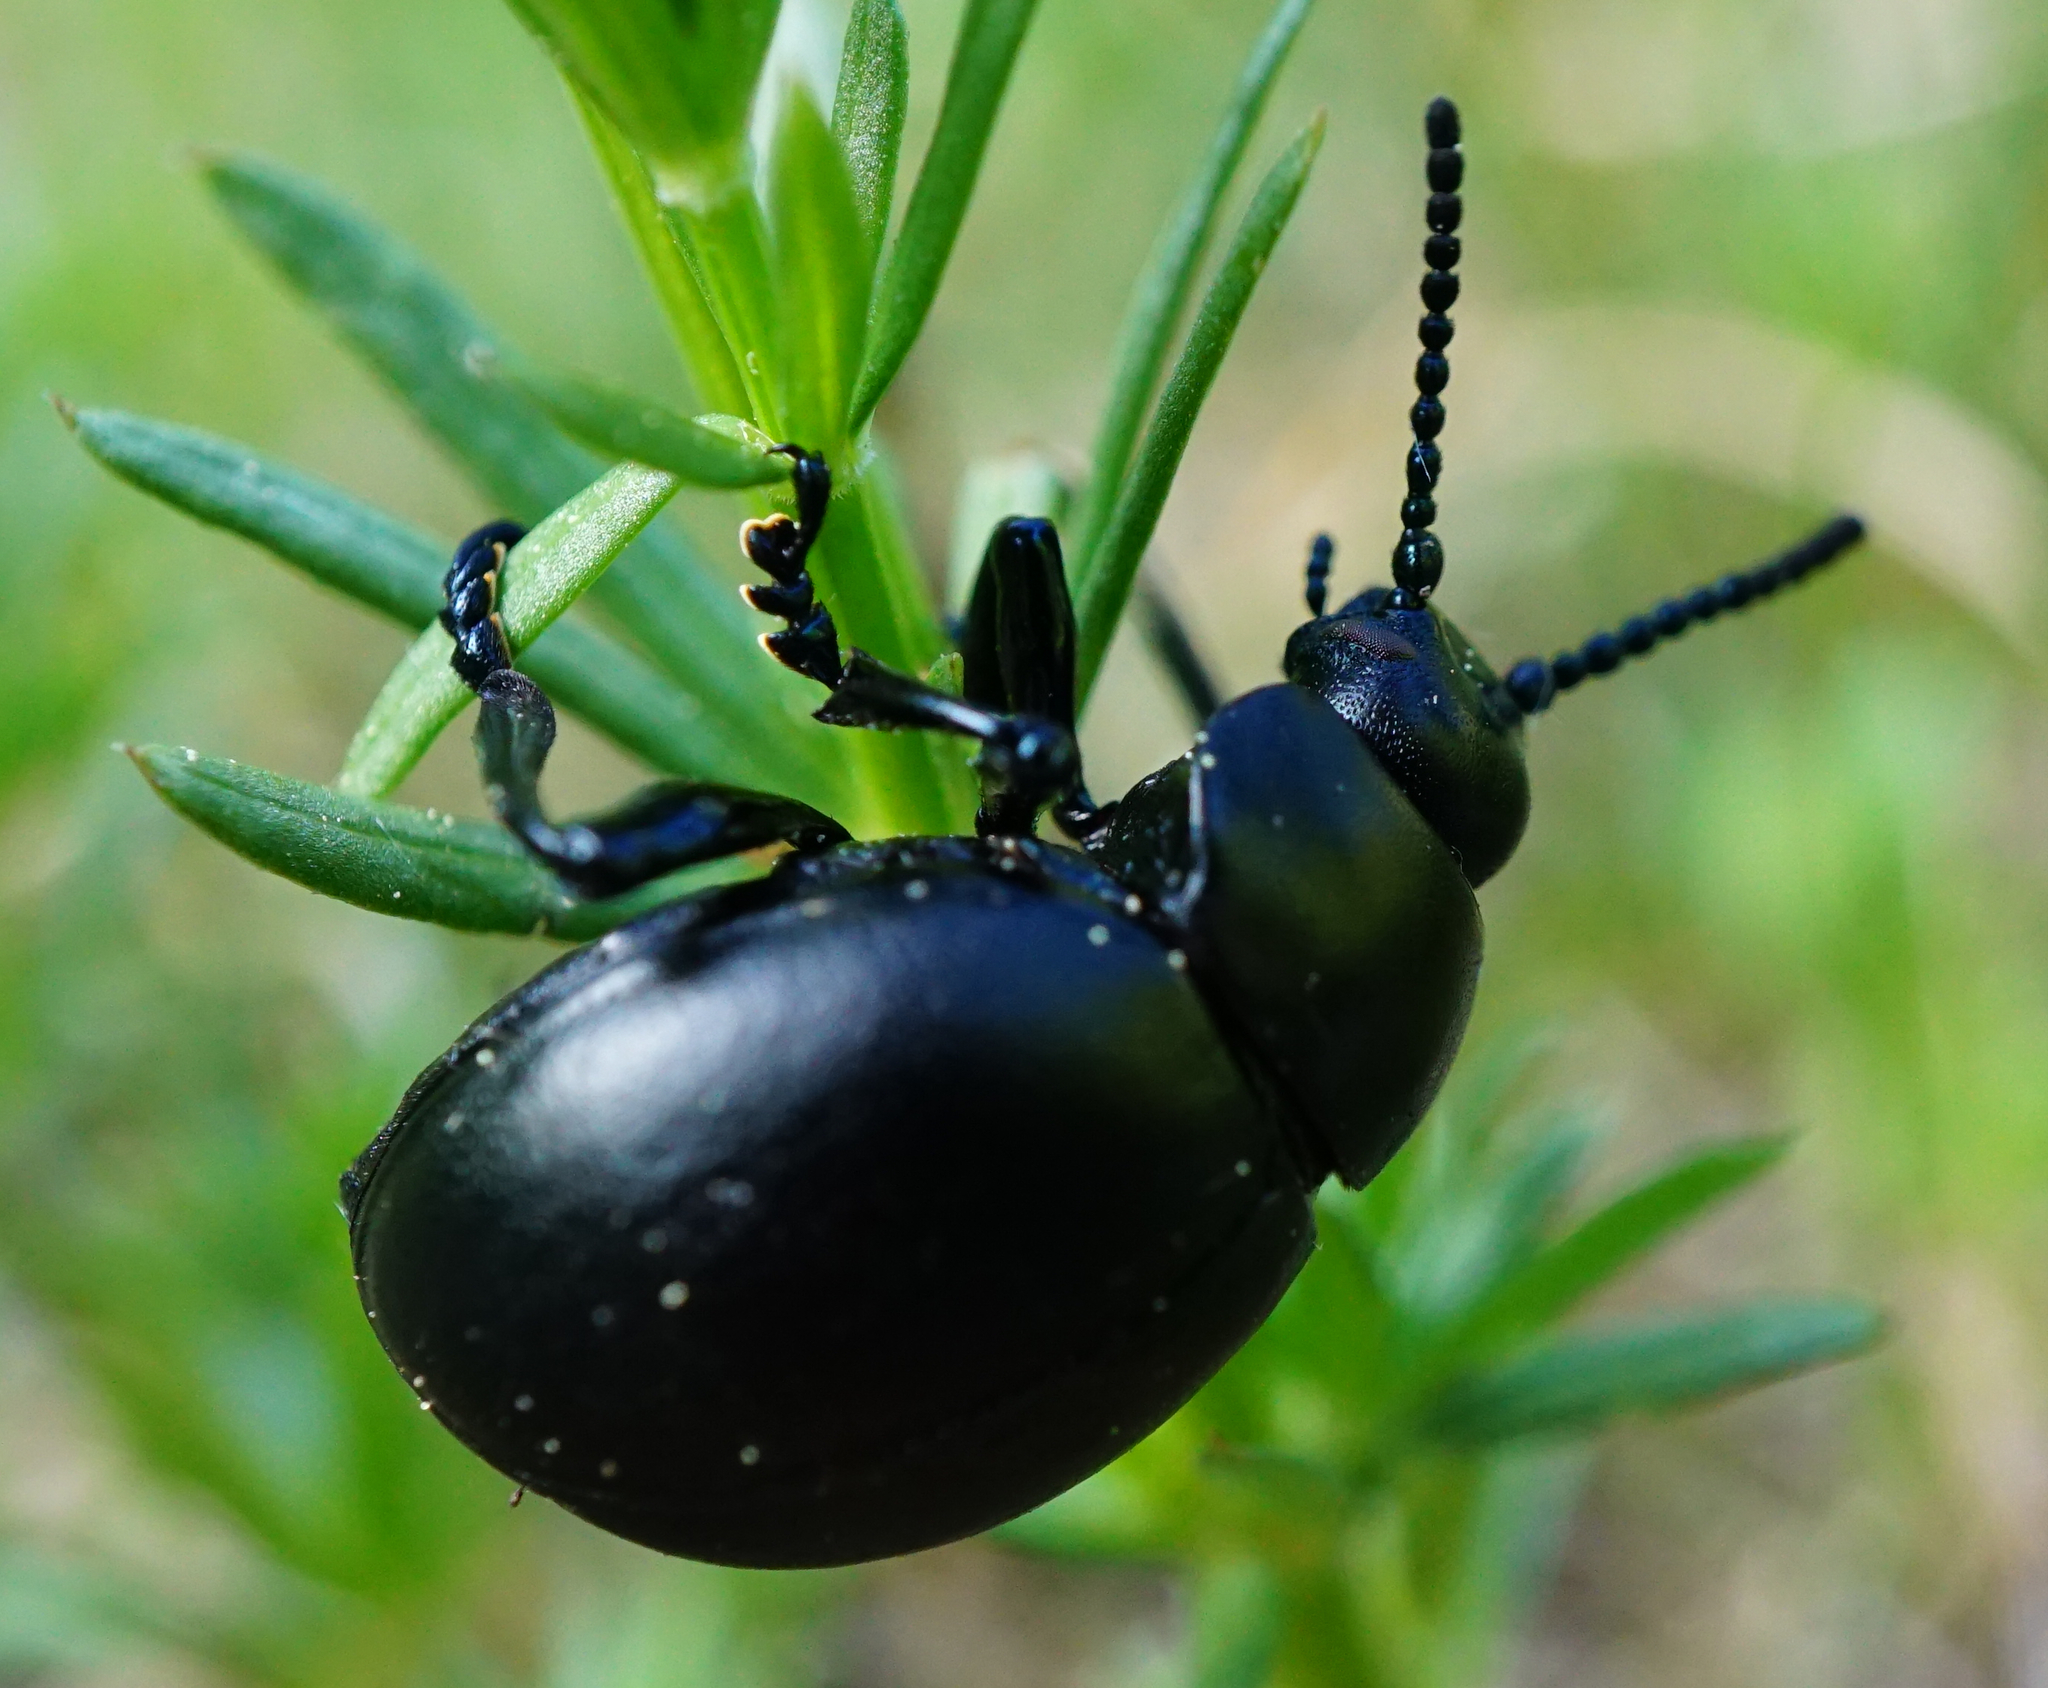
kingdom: Animalia
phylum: Arthropoda
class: Insecta
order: Coleoptera
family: Chrysomelidae
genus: Timarcha
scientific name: Timarcha tenebricosa
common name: Bloody-nosed beetle
